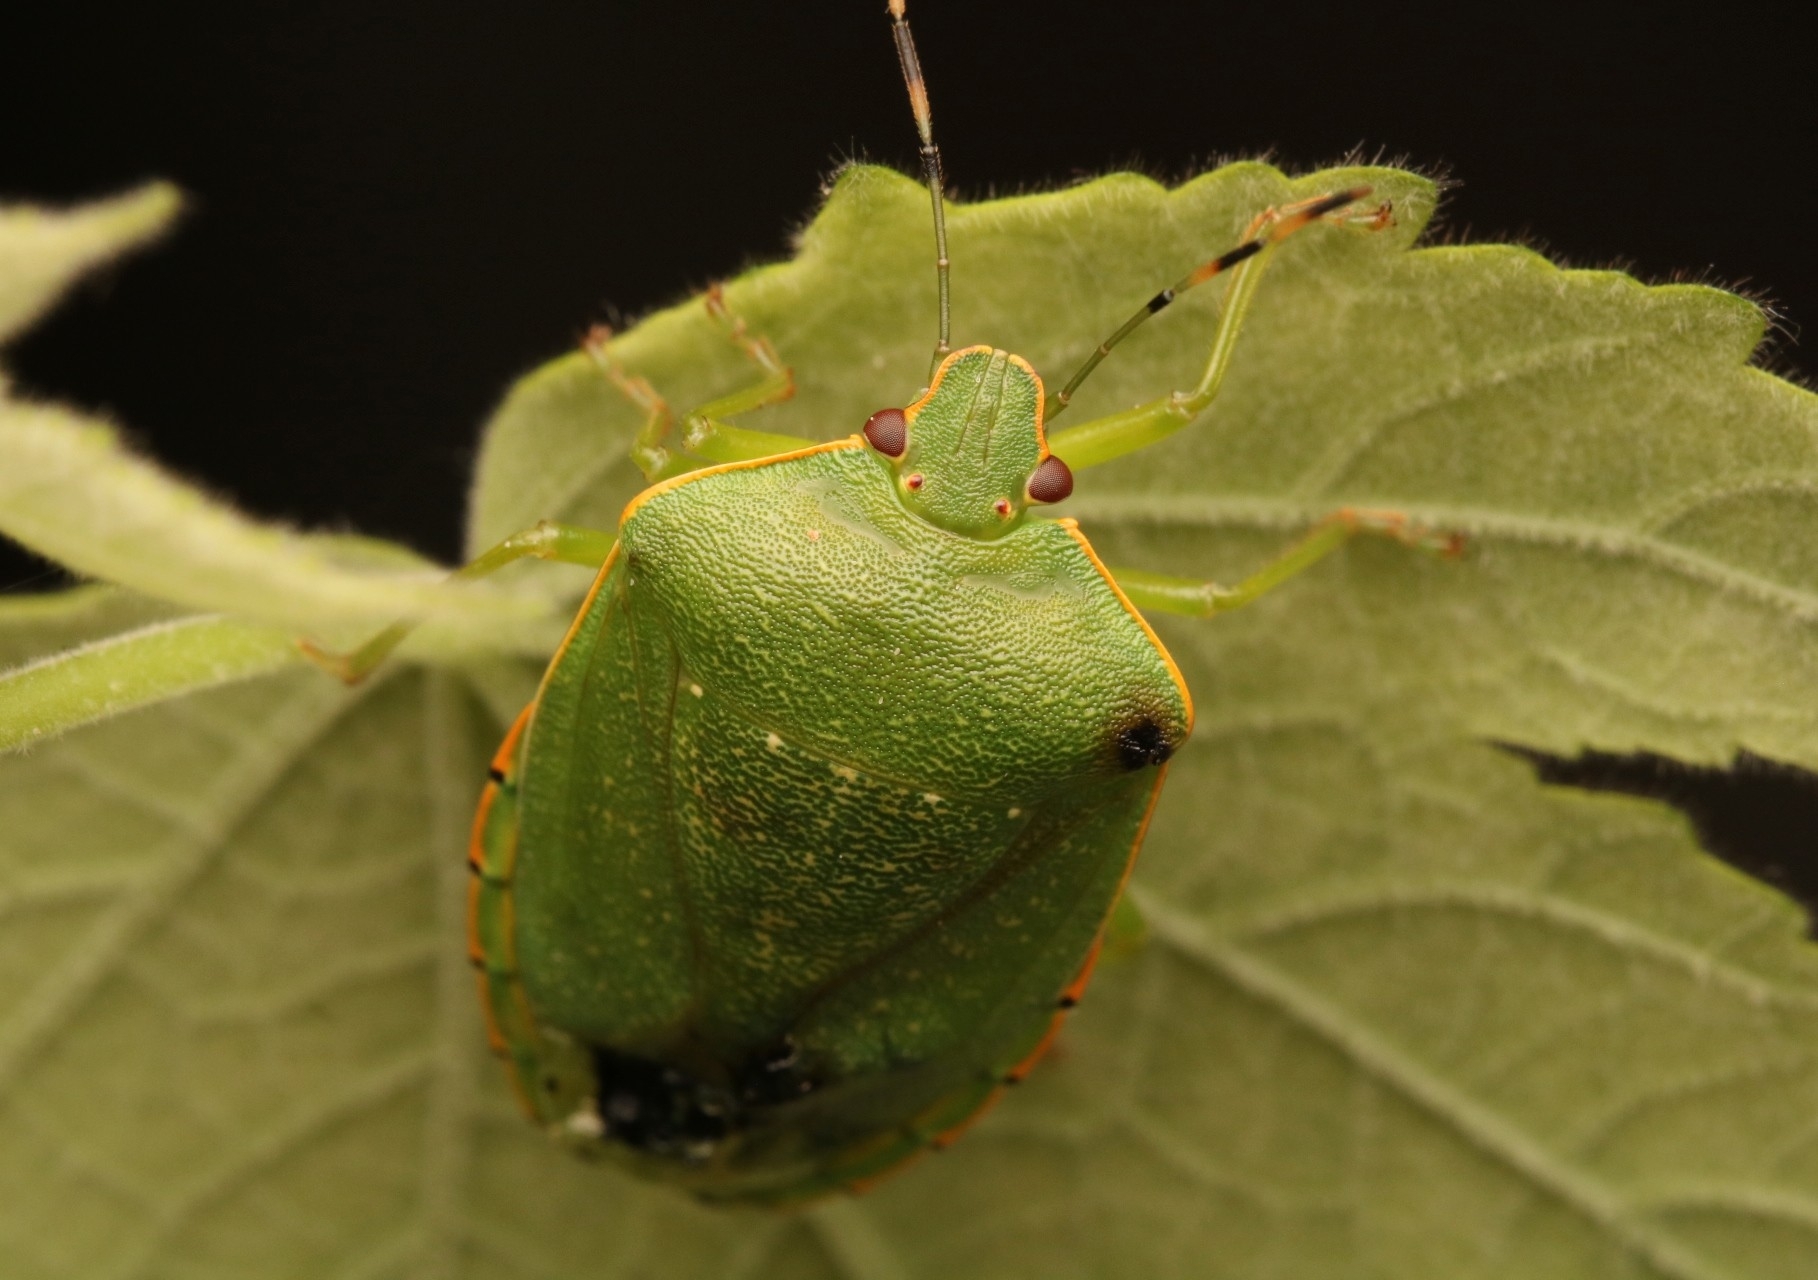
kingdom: Animalia
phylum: Arthropoda
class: Insecta
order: Hemiptera
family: Pentatomidae
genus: Chinavia
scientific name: Chinavia hilaris
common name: Green stink bug
